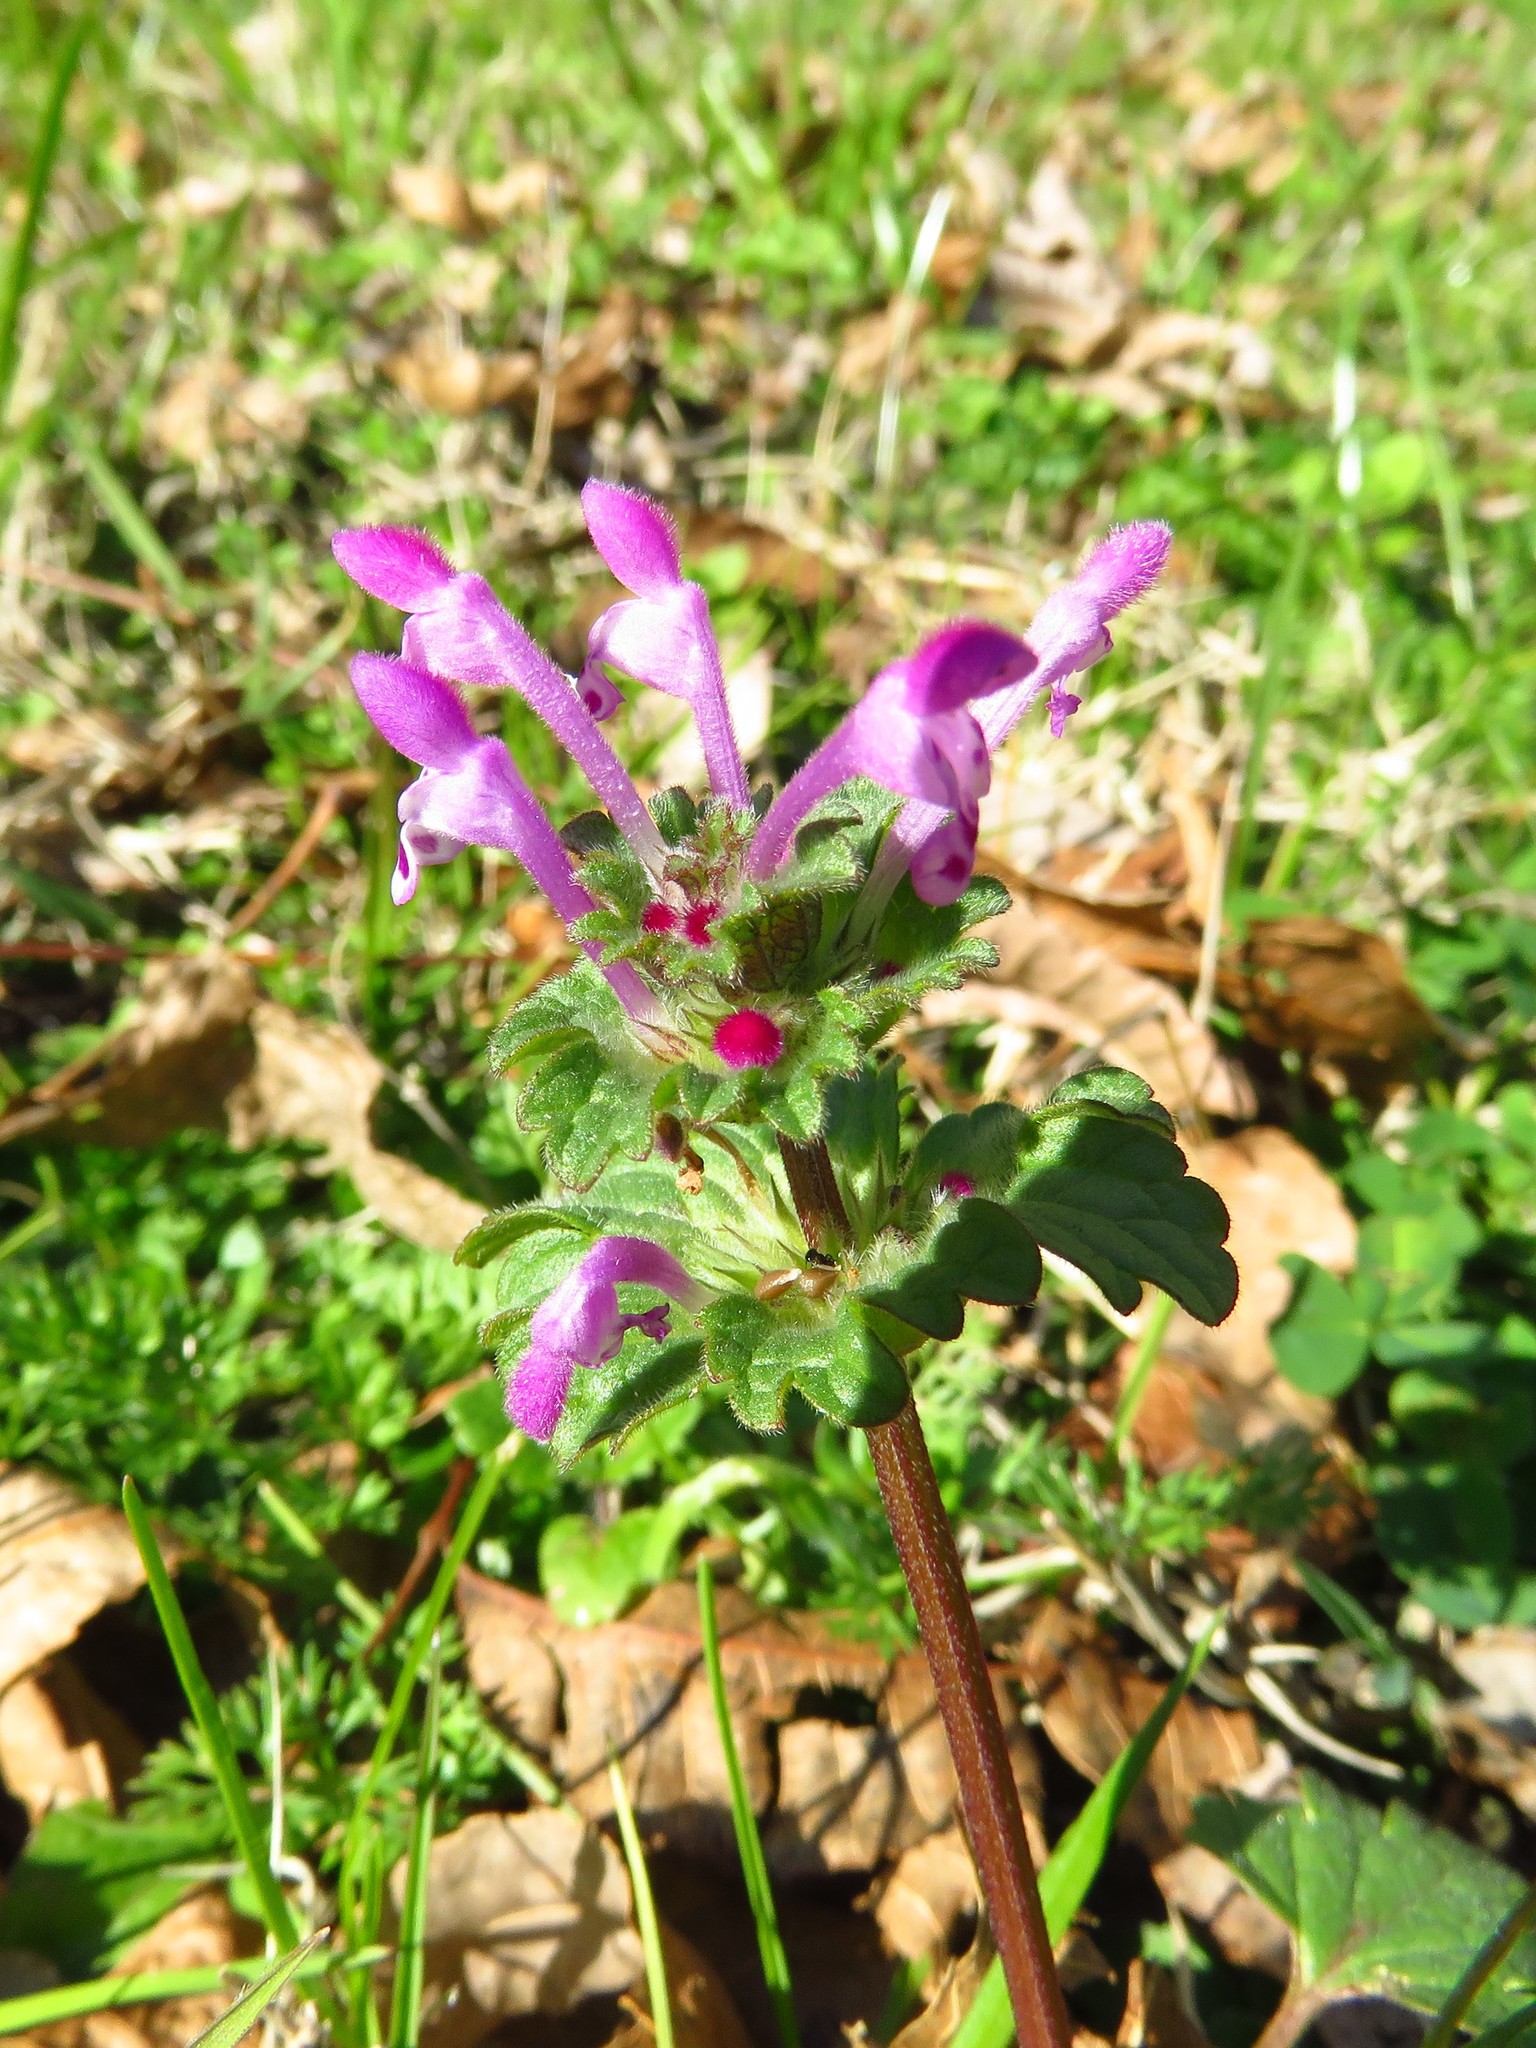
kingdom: Plantae
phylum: Tracheophyta
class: Magnoliopsida
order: Lamiales
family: Lamiaceae
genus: Lamium
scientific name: Lamium amplexicaule
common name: Henbit dead-nettle
